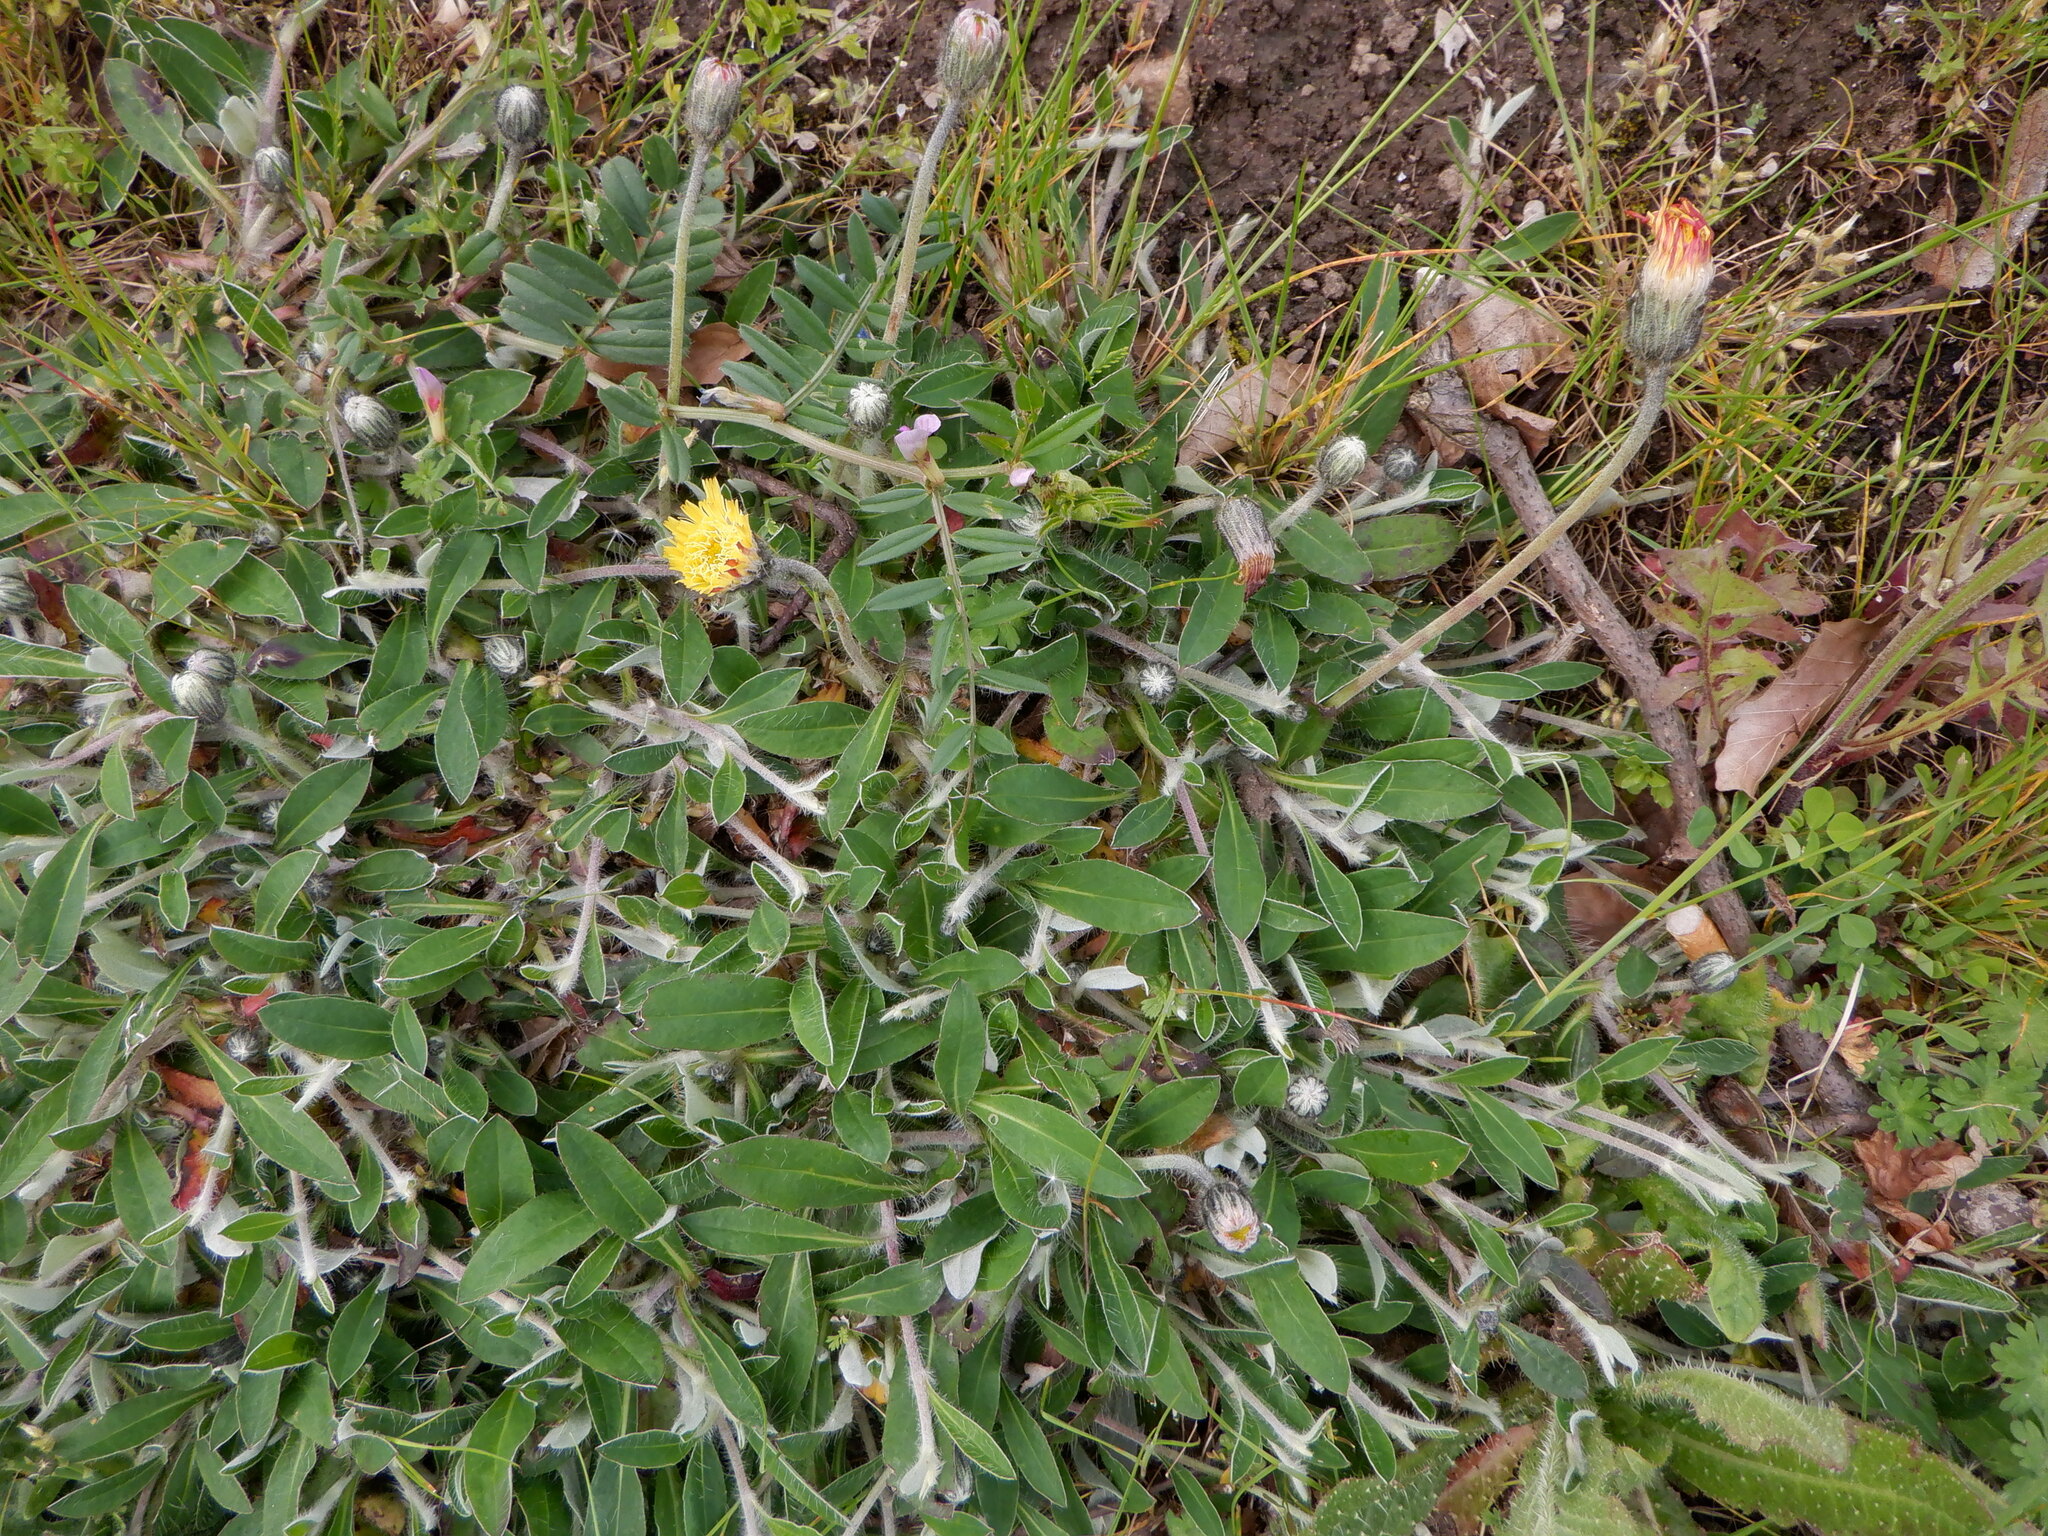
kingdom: Plantae
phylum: Tracheophyta
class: Magnoliopsida
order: Asterales
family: Asteraceae
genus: Pilosella
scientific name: Pilosella officinarum
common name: Mouse-ear hawkweed
